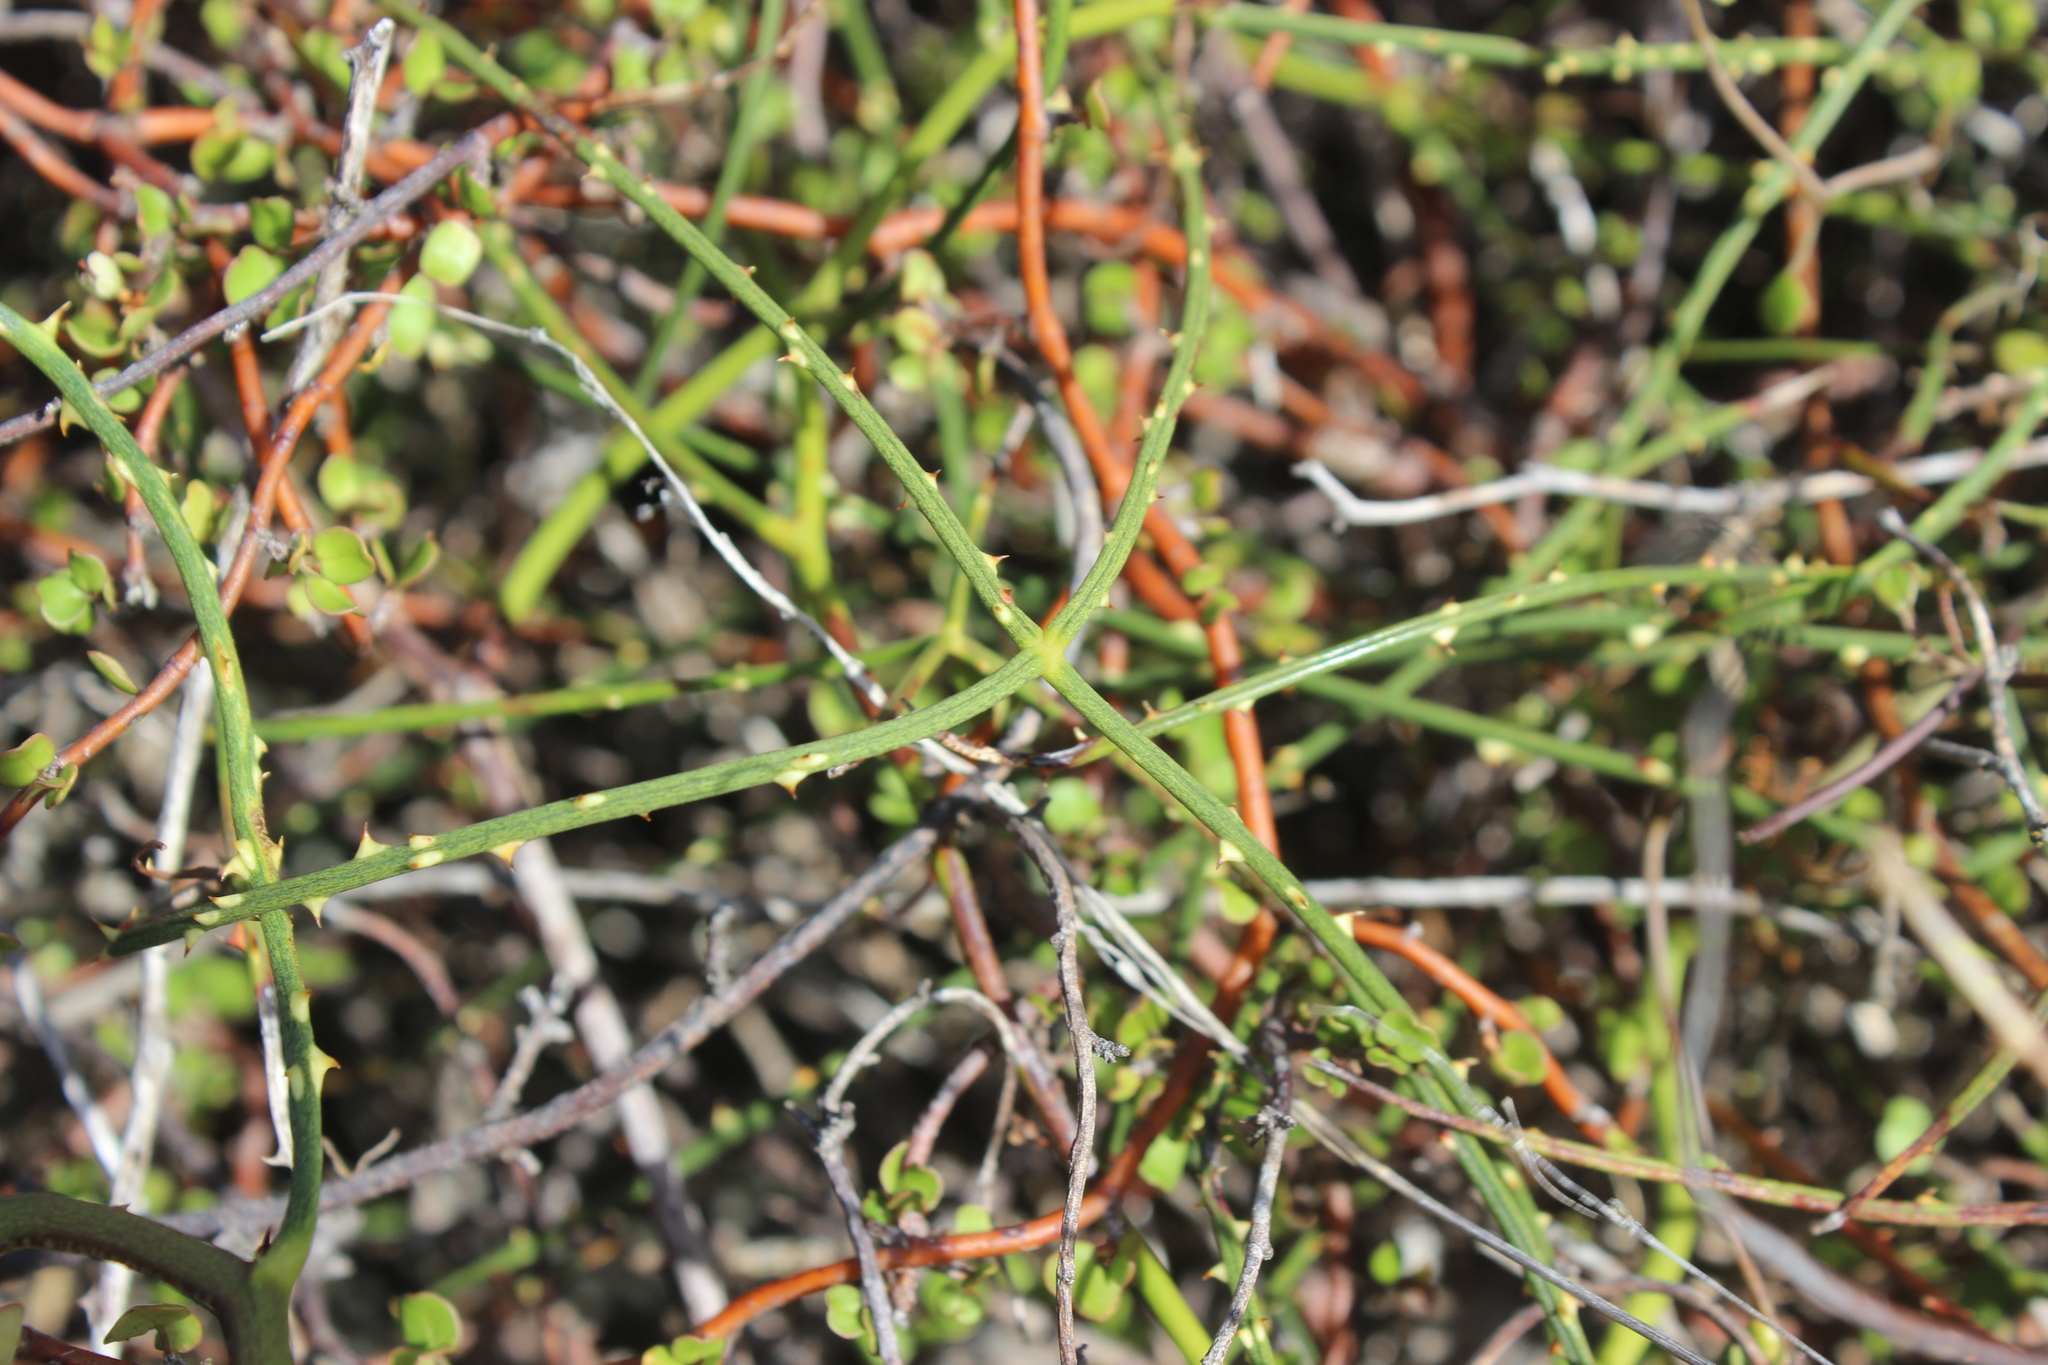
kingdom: Plantae
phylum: Tracheophyta
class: Magnoliopsida
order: Rosales
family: Rosaceae
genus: Rubus
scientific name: Rubus squarrosus
